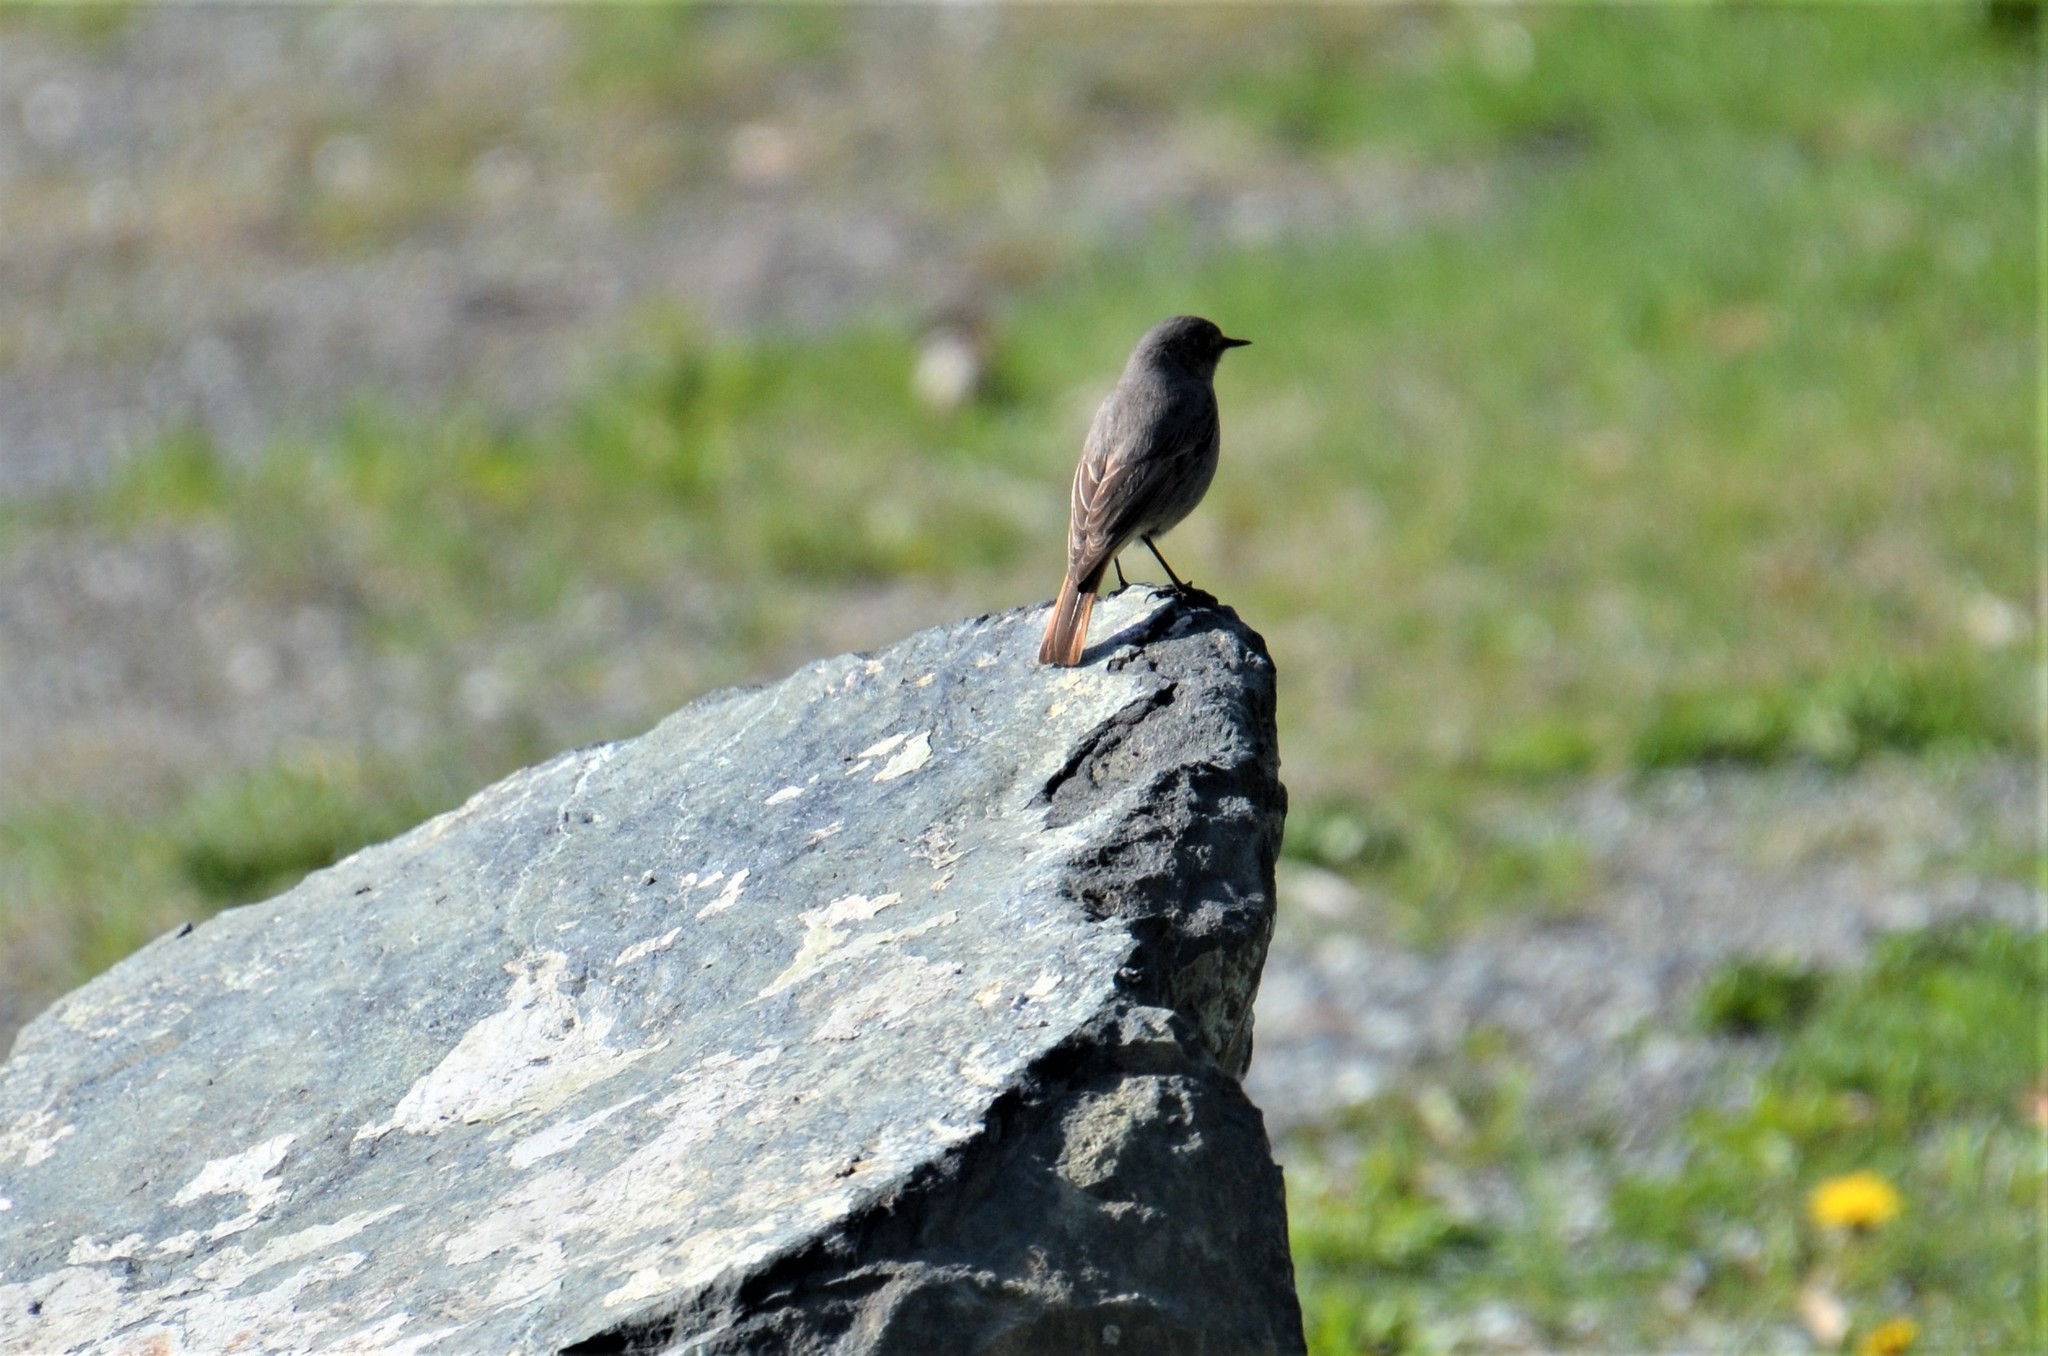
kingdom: Animalia
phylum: Chordata
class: Aves
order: Passeriformes
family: Muscicapidae
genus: Phoenicurus
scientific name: Phoenicurus ochruros
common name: Black redstart
